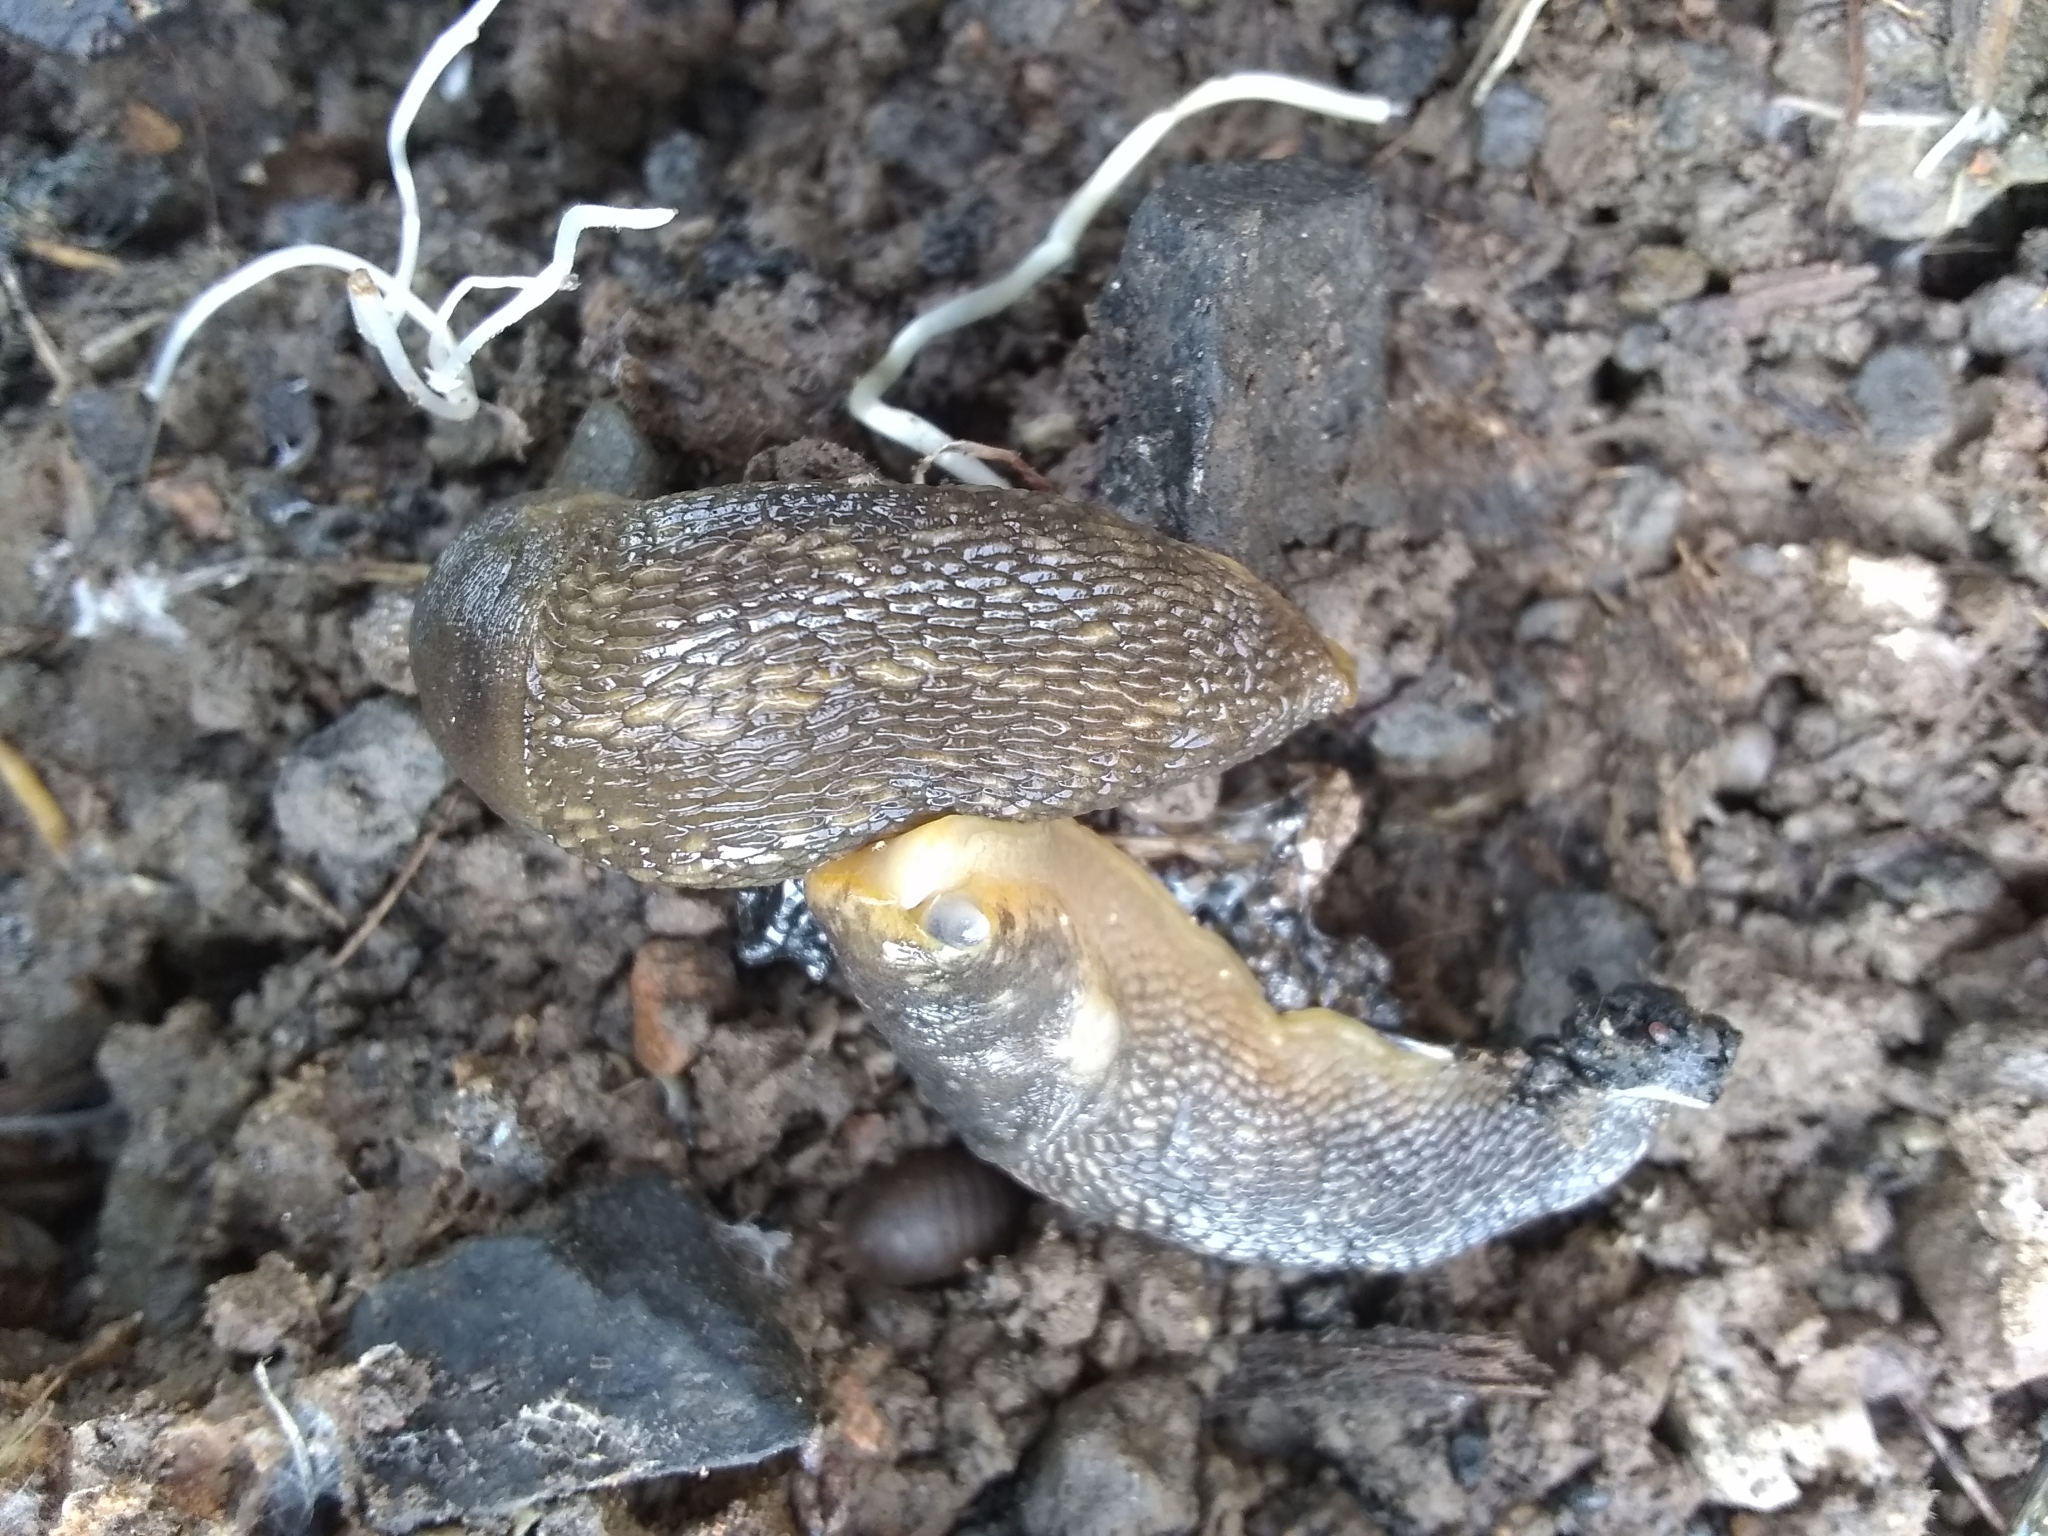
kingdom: Animalia
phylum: Mollusca
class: Gastropoda
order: Stylommatophora
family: Limacidae
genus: Limacus
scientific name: Limacus flavus
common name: Yellow gardenslug
